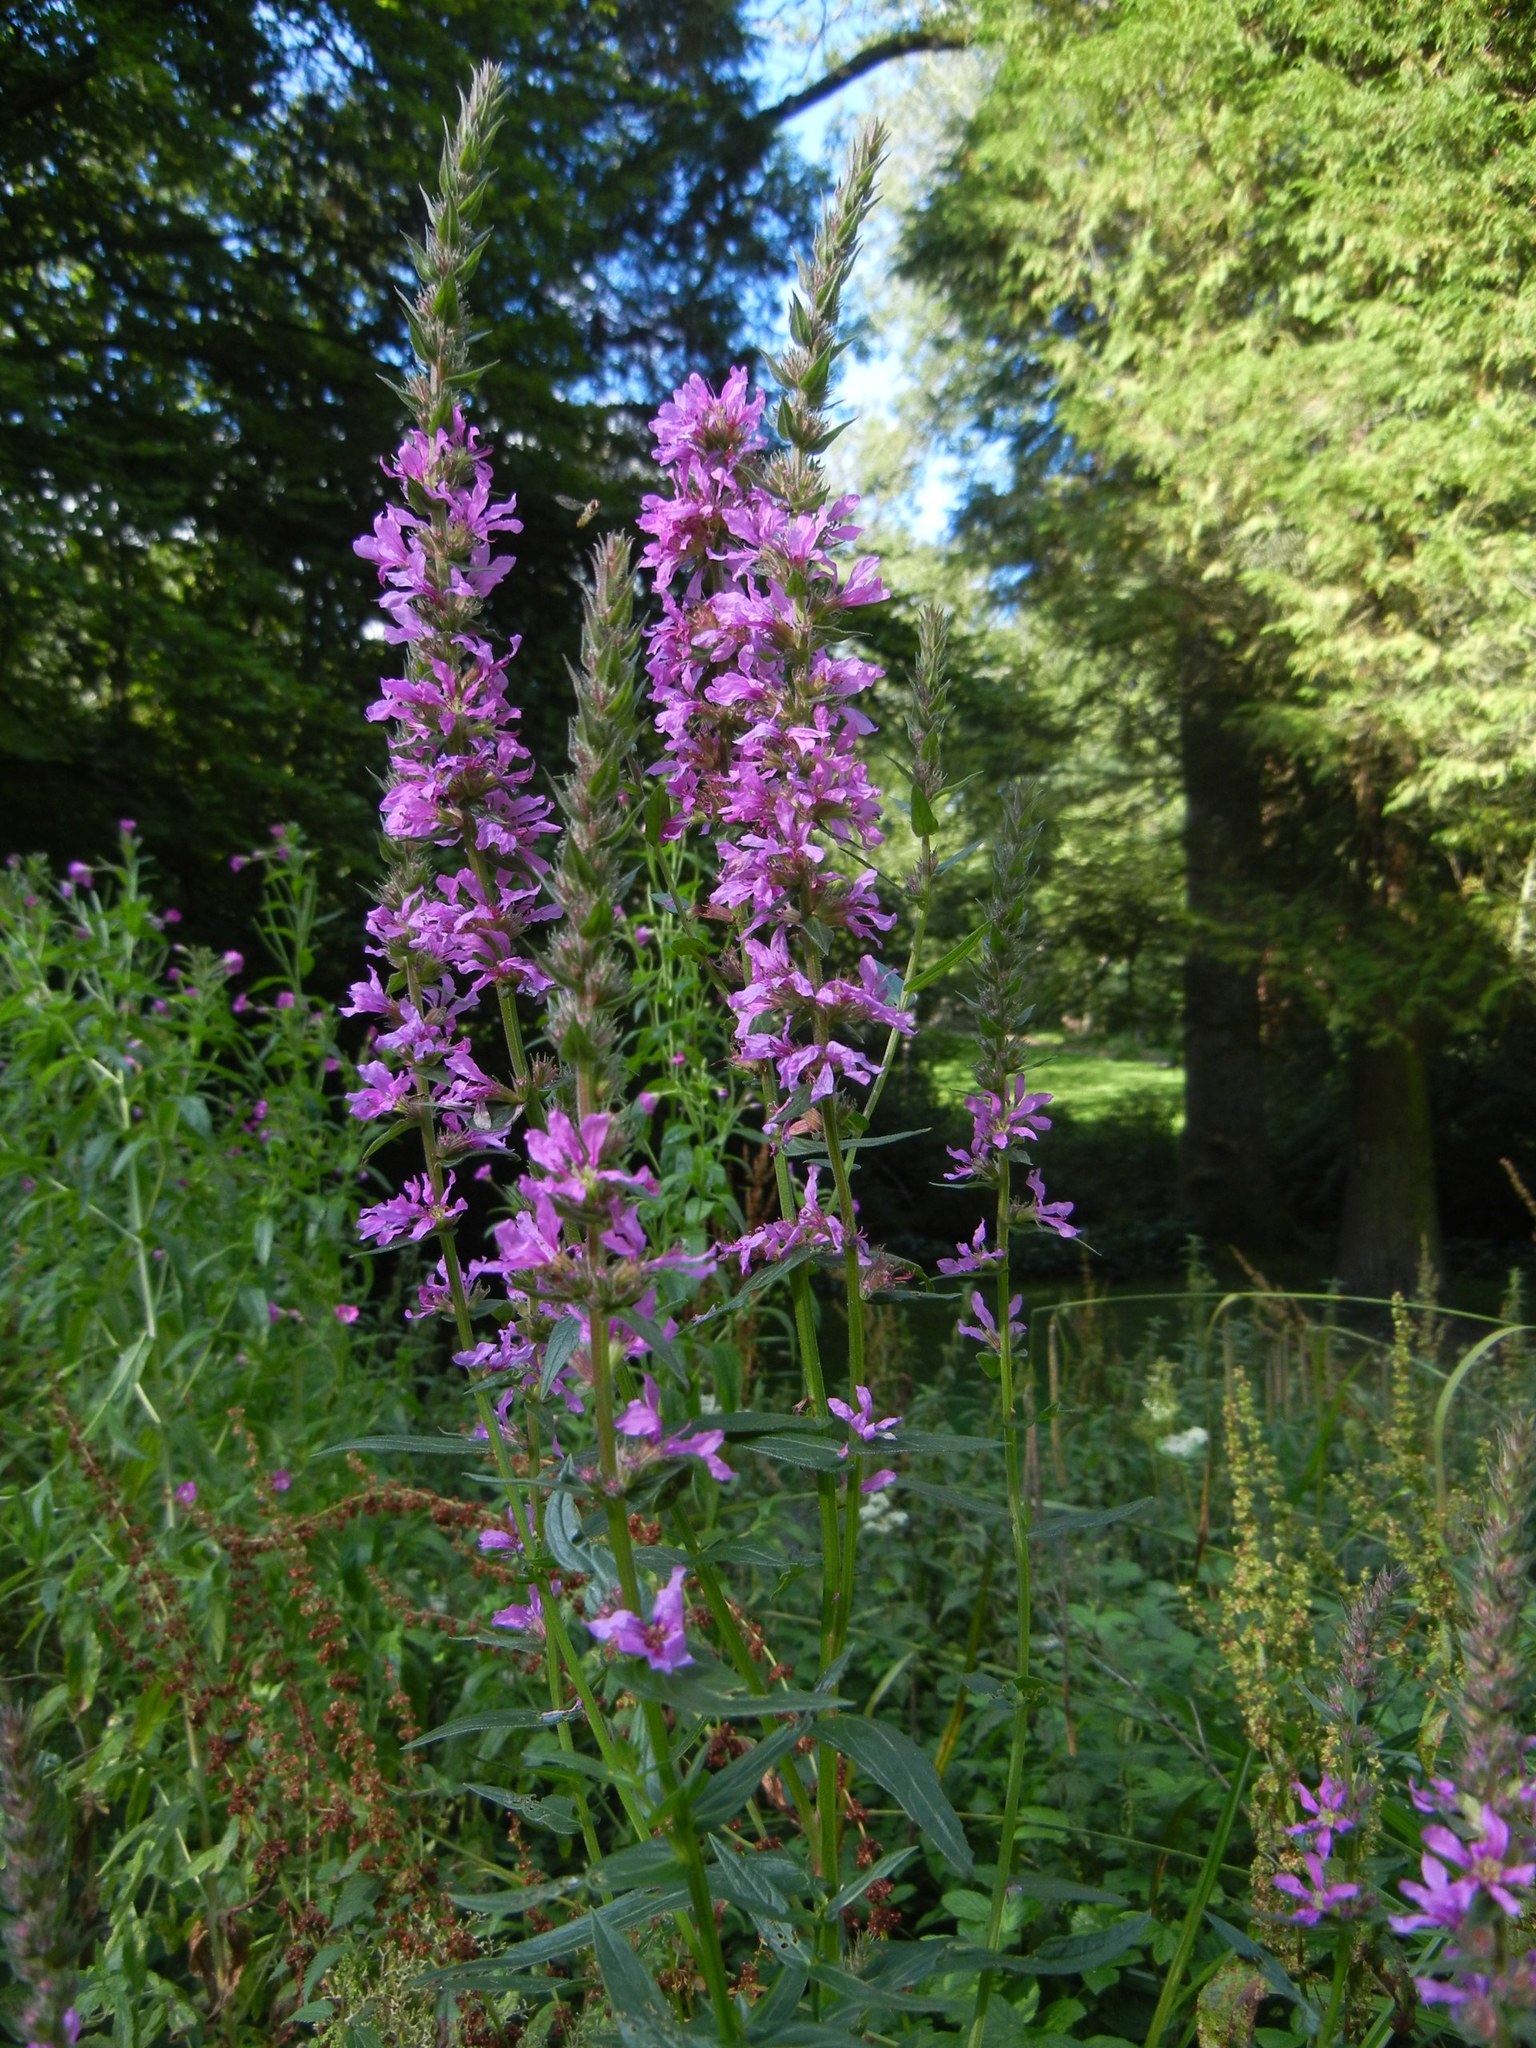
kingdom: Plantae
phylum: Tracheophyta
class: Magnoliopsida
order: Myrtales
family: Lythraceae
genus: Lythrum
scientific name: Lythrum salicaria
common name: Purple loosestrife
